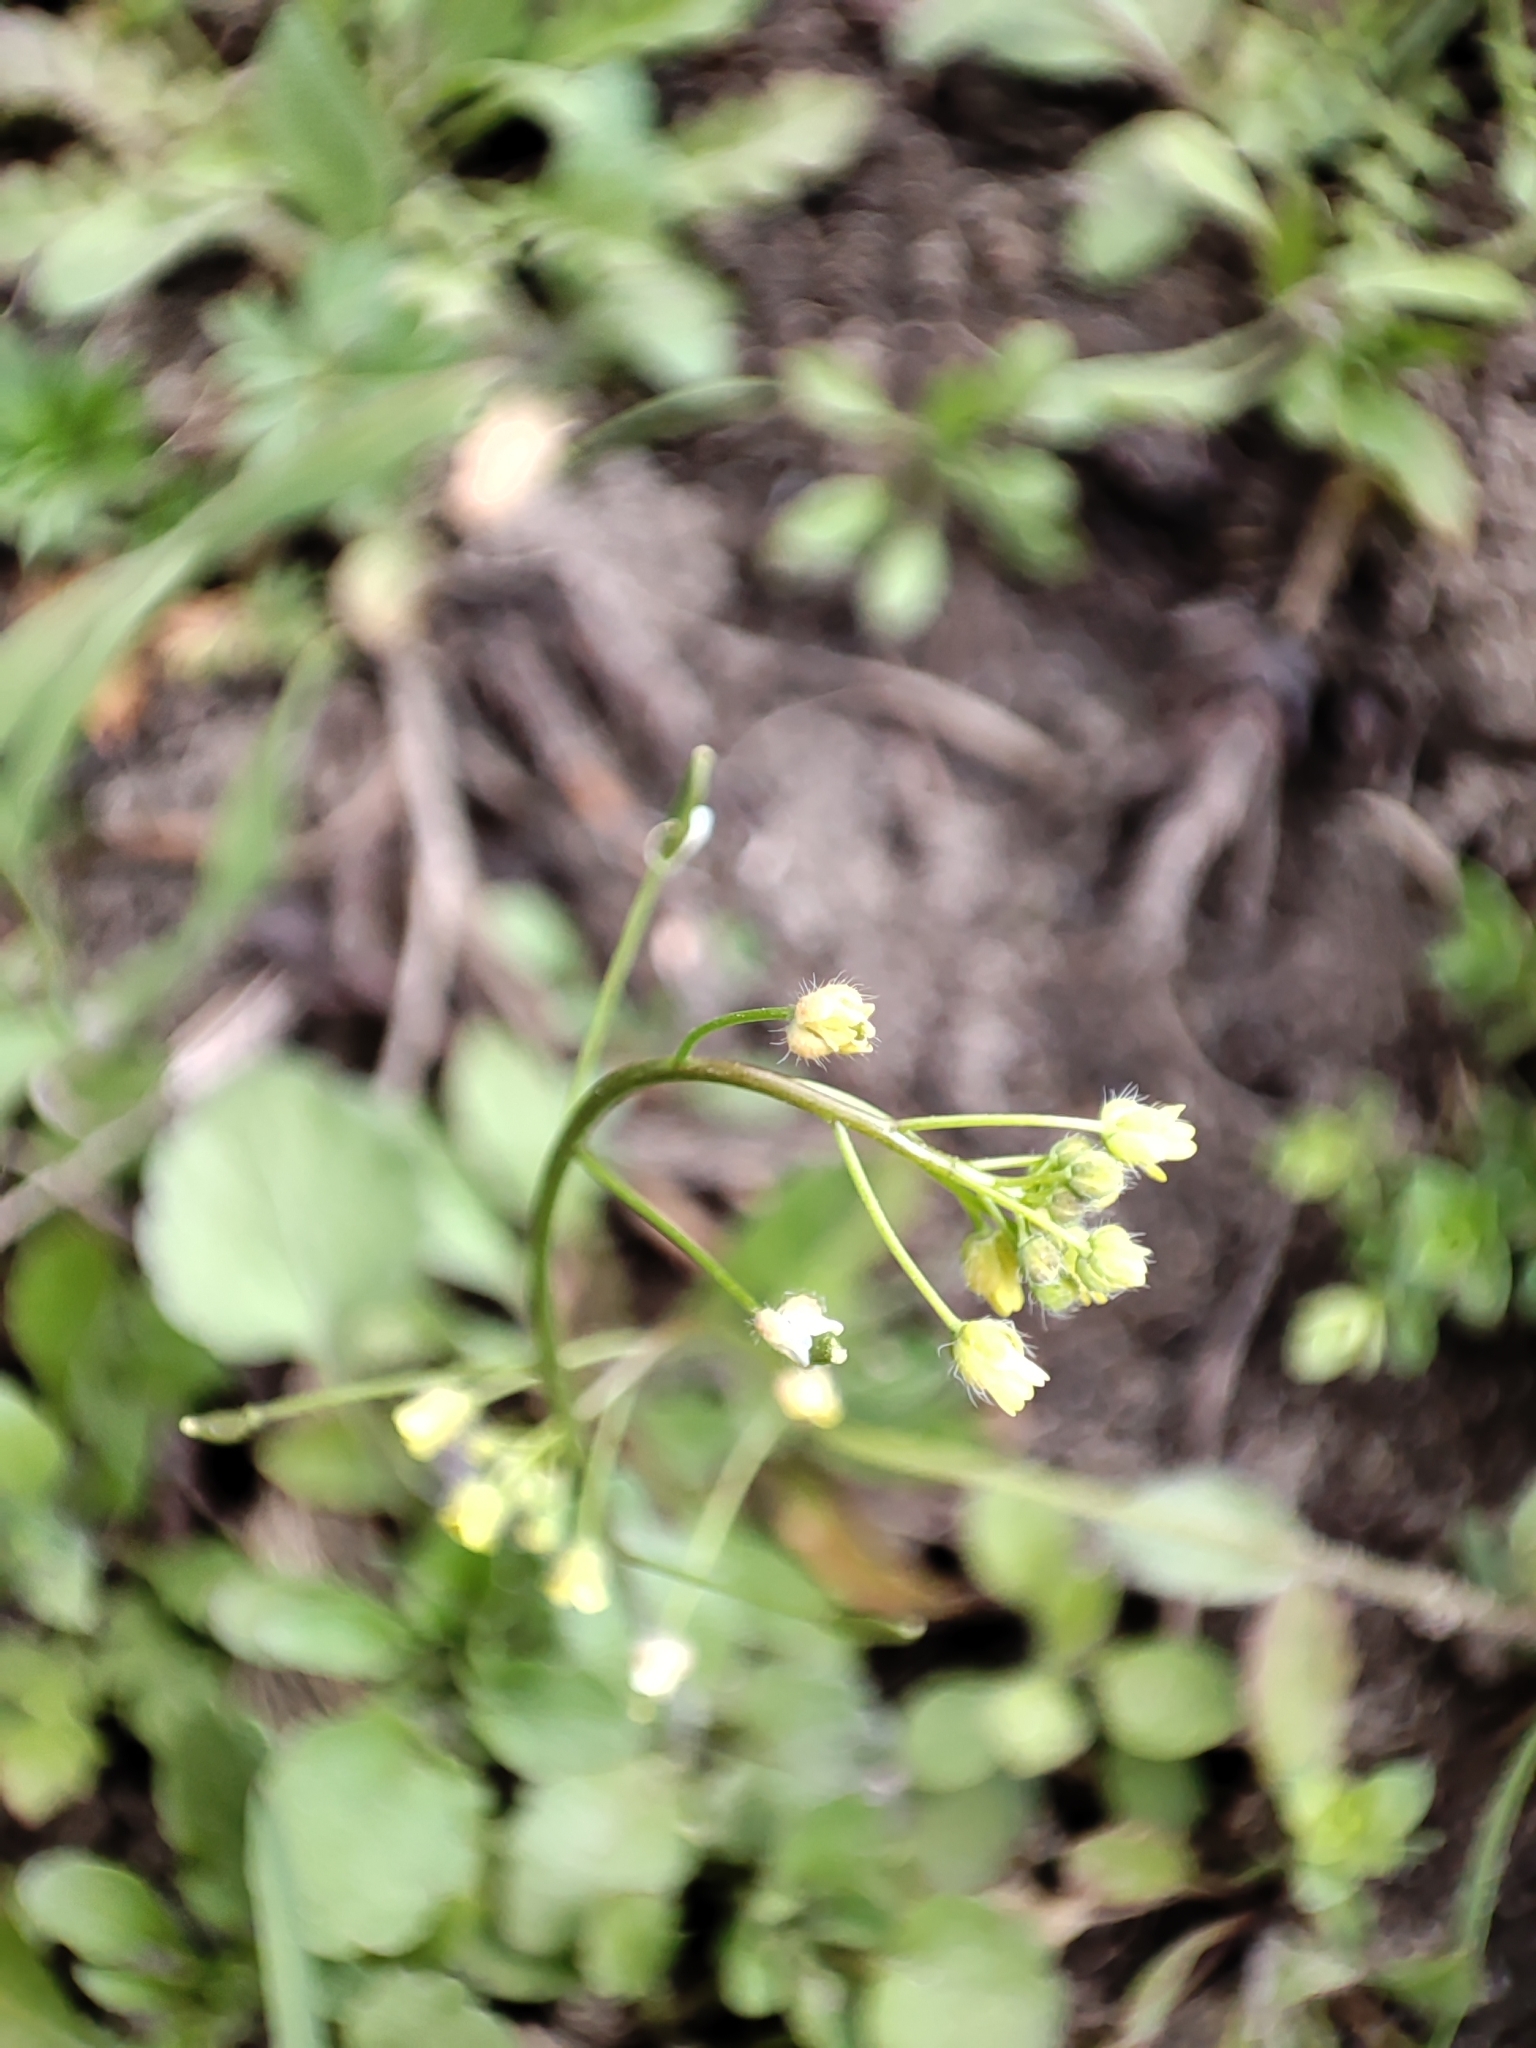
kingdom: Plantae
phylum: Tracheophyta
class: Magnoliopsida
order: Brassicales
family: Brassicaceae
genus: Draba
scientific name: Draba nemorosa
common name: Wood whitlow-grass
